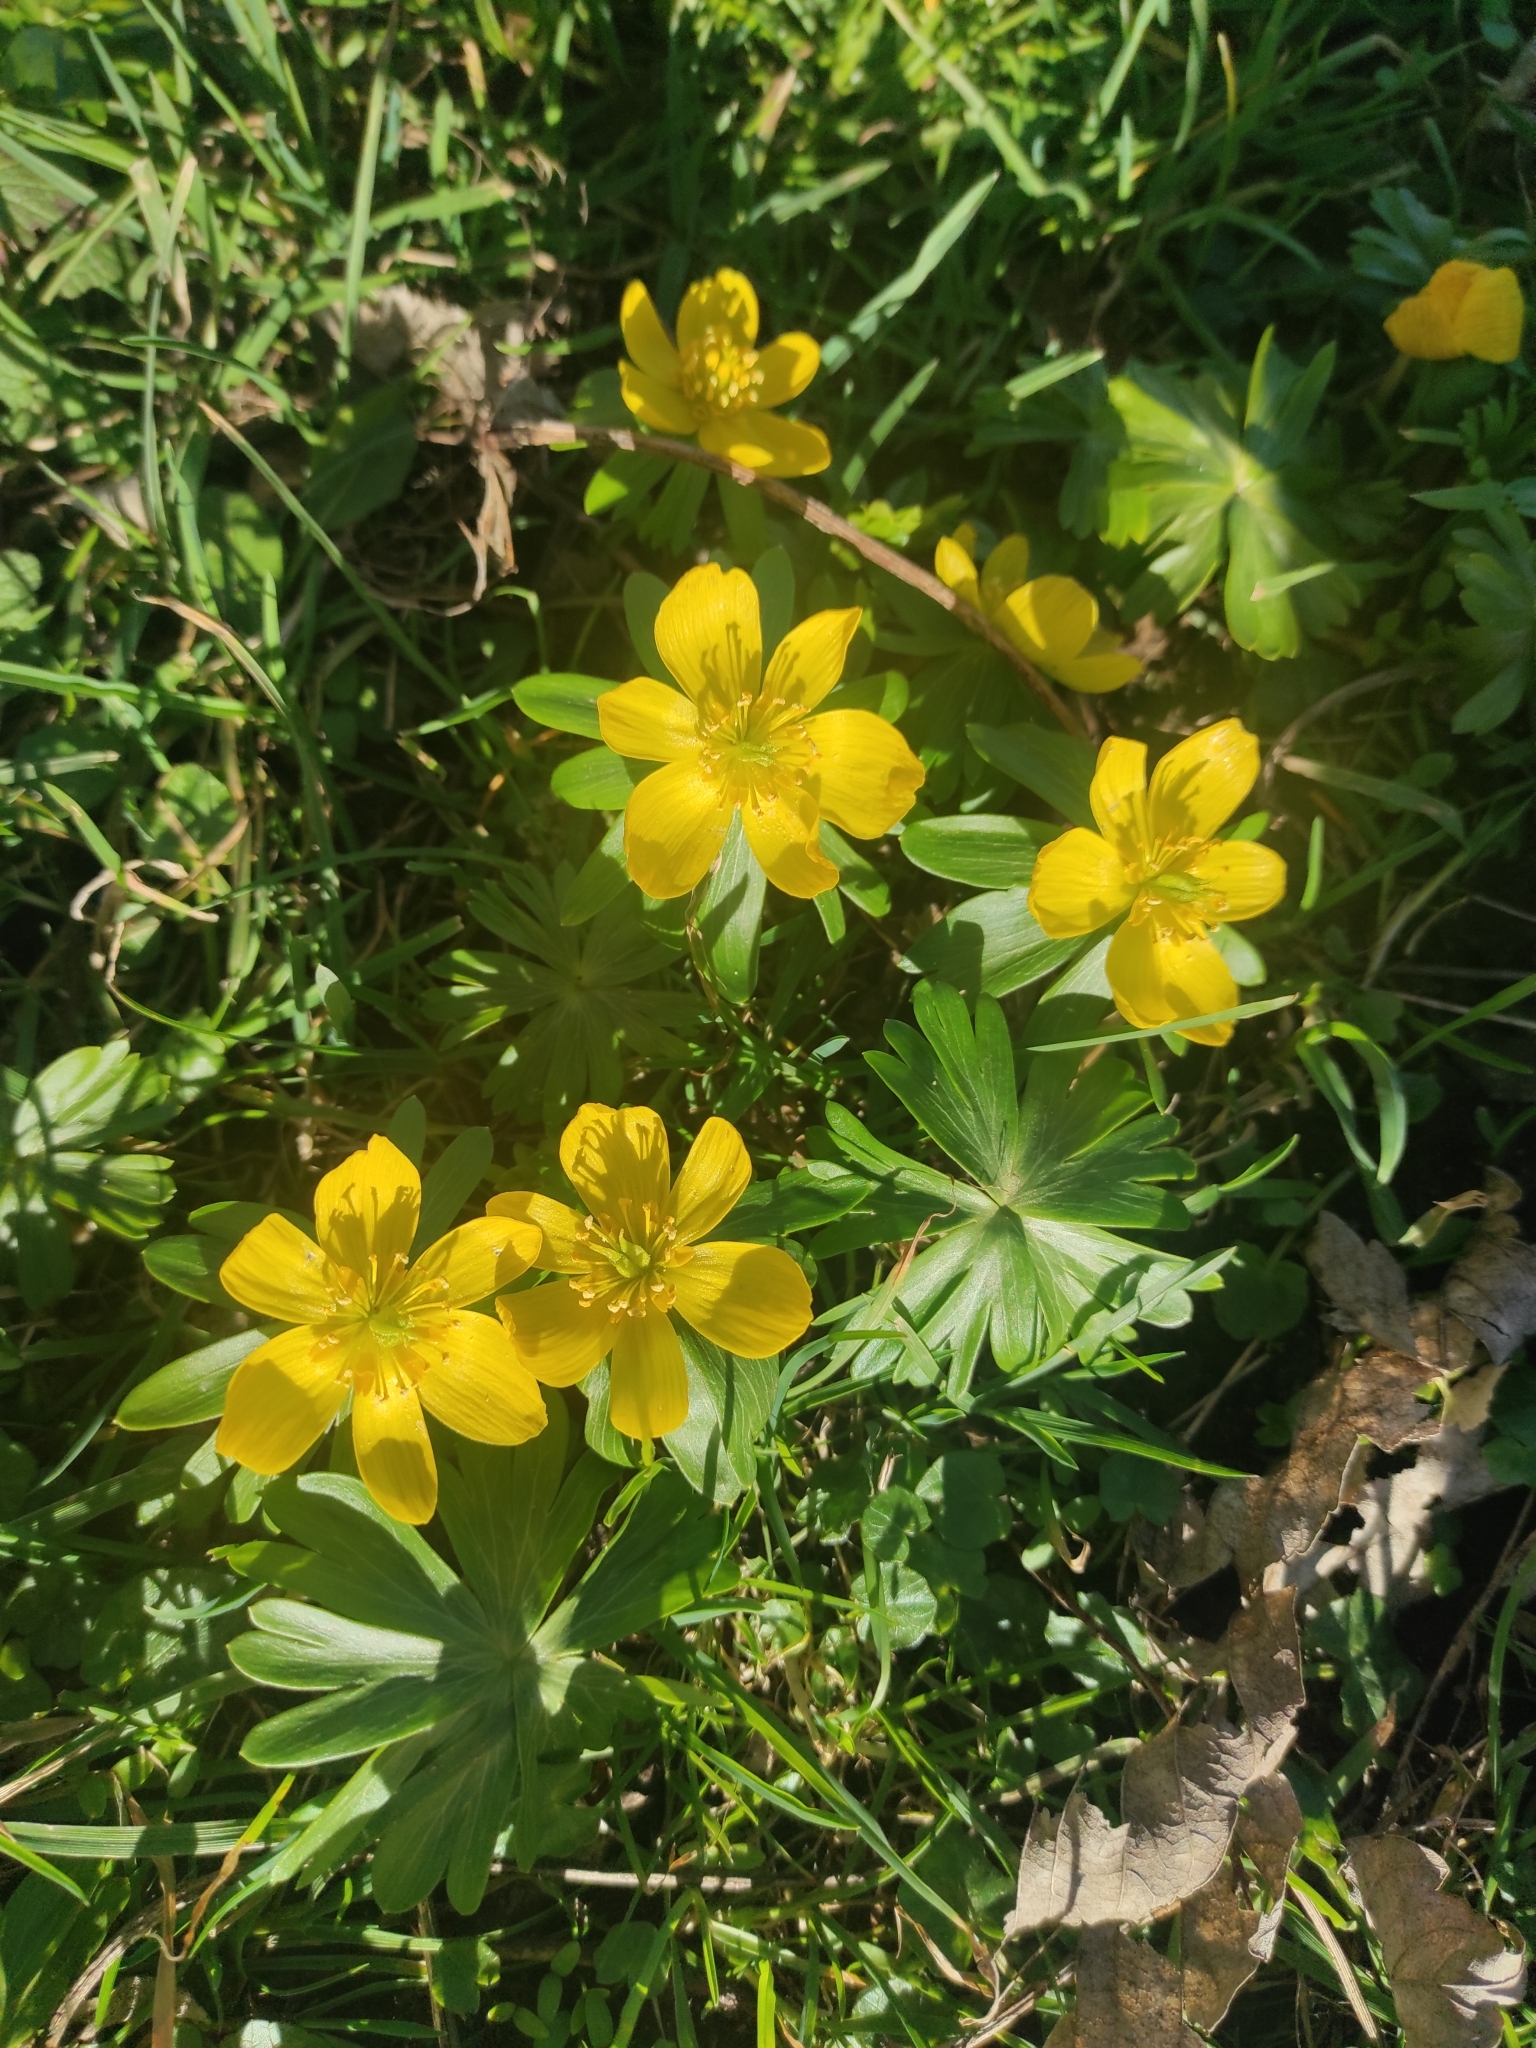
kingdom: Plantae
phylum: Tracheophyta
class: Magnoliopsida
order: Ranunculales
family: Ranunculaceae
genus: Eranthis
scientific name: Eranthis hyemalis
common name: Winter aconite
